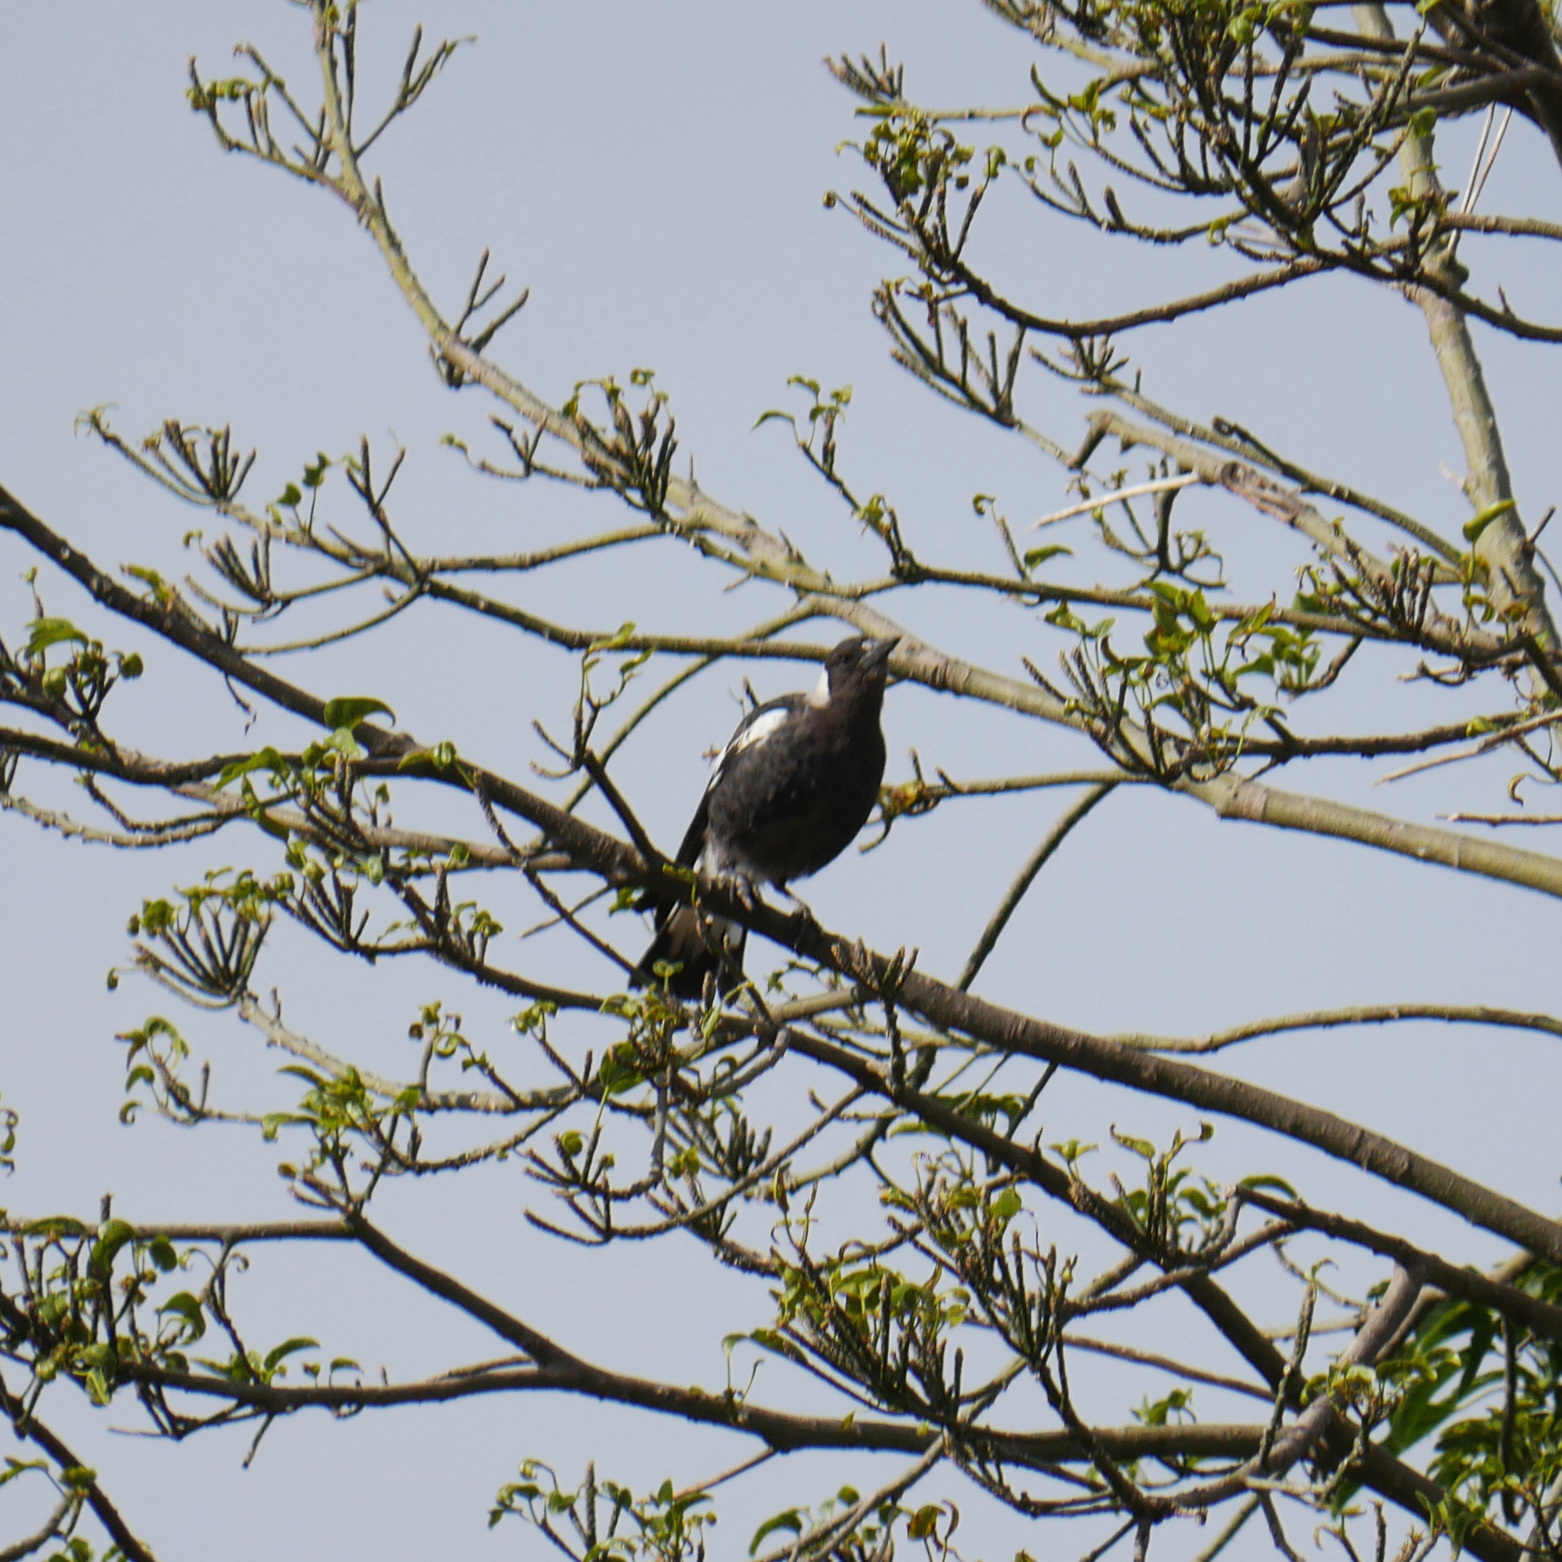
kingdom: Animalia
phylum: Chordata
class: Aves
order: Passeriformes
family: Cracticidae
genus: Gymnorhina
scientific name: Gymnorhina tibicen
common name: Australian magpie
